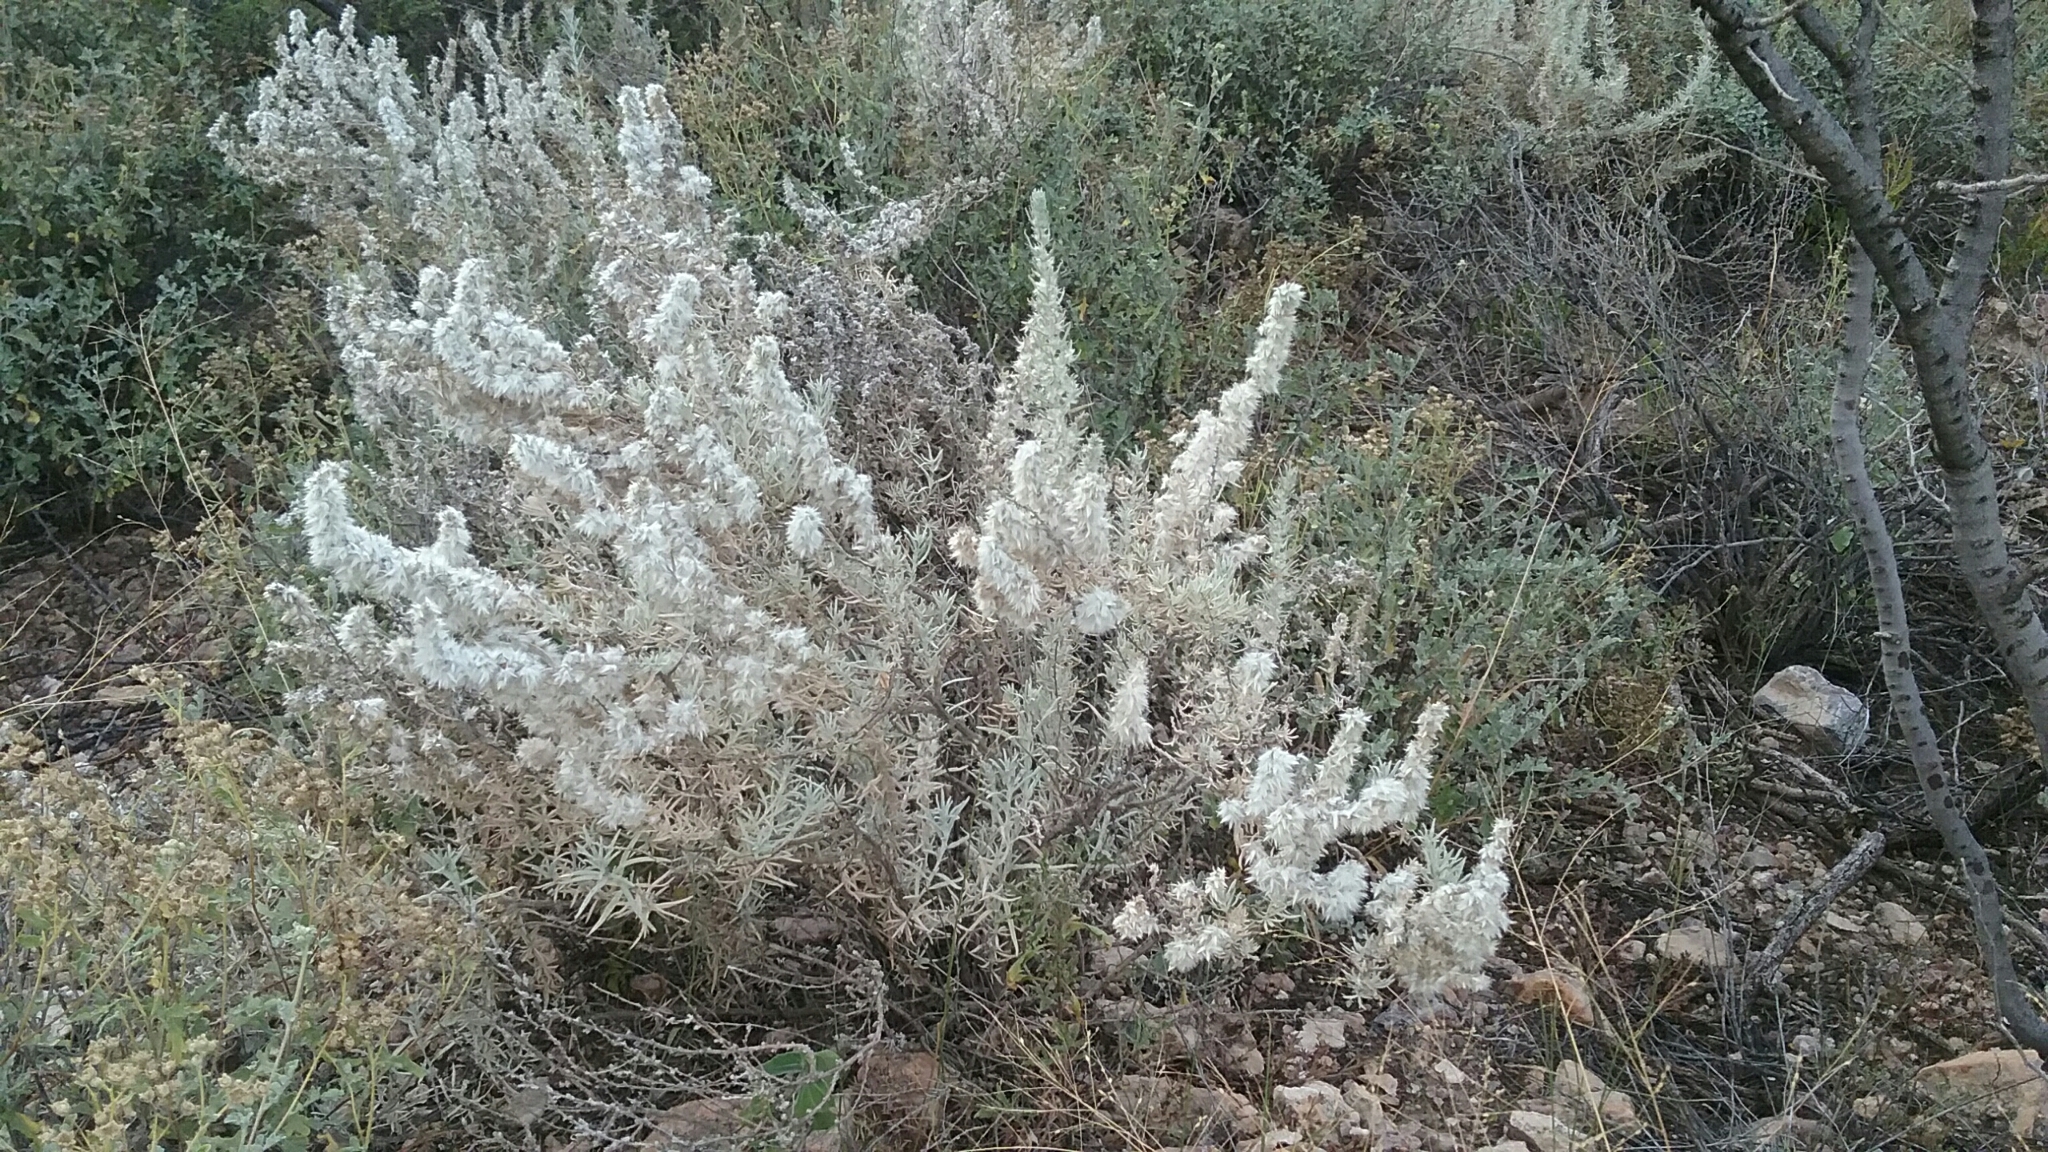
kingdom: Plantae
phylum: Tracheophyta
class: Magnoliopsida
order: Caryophyllales
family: Amaranthaceae
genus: Krascheninnikovia
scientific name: Krascheninnikovia lanata
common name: Winterfat
